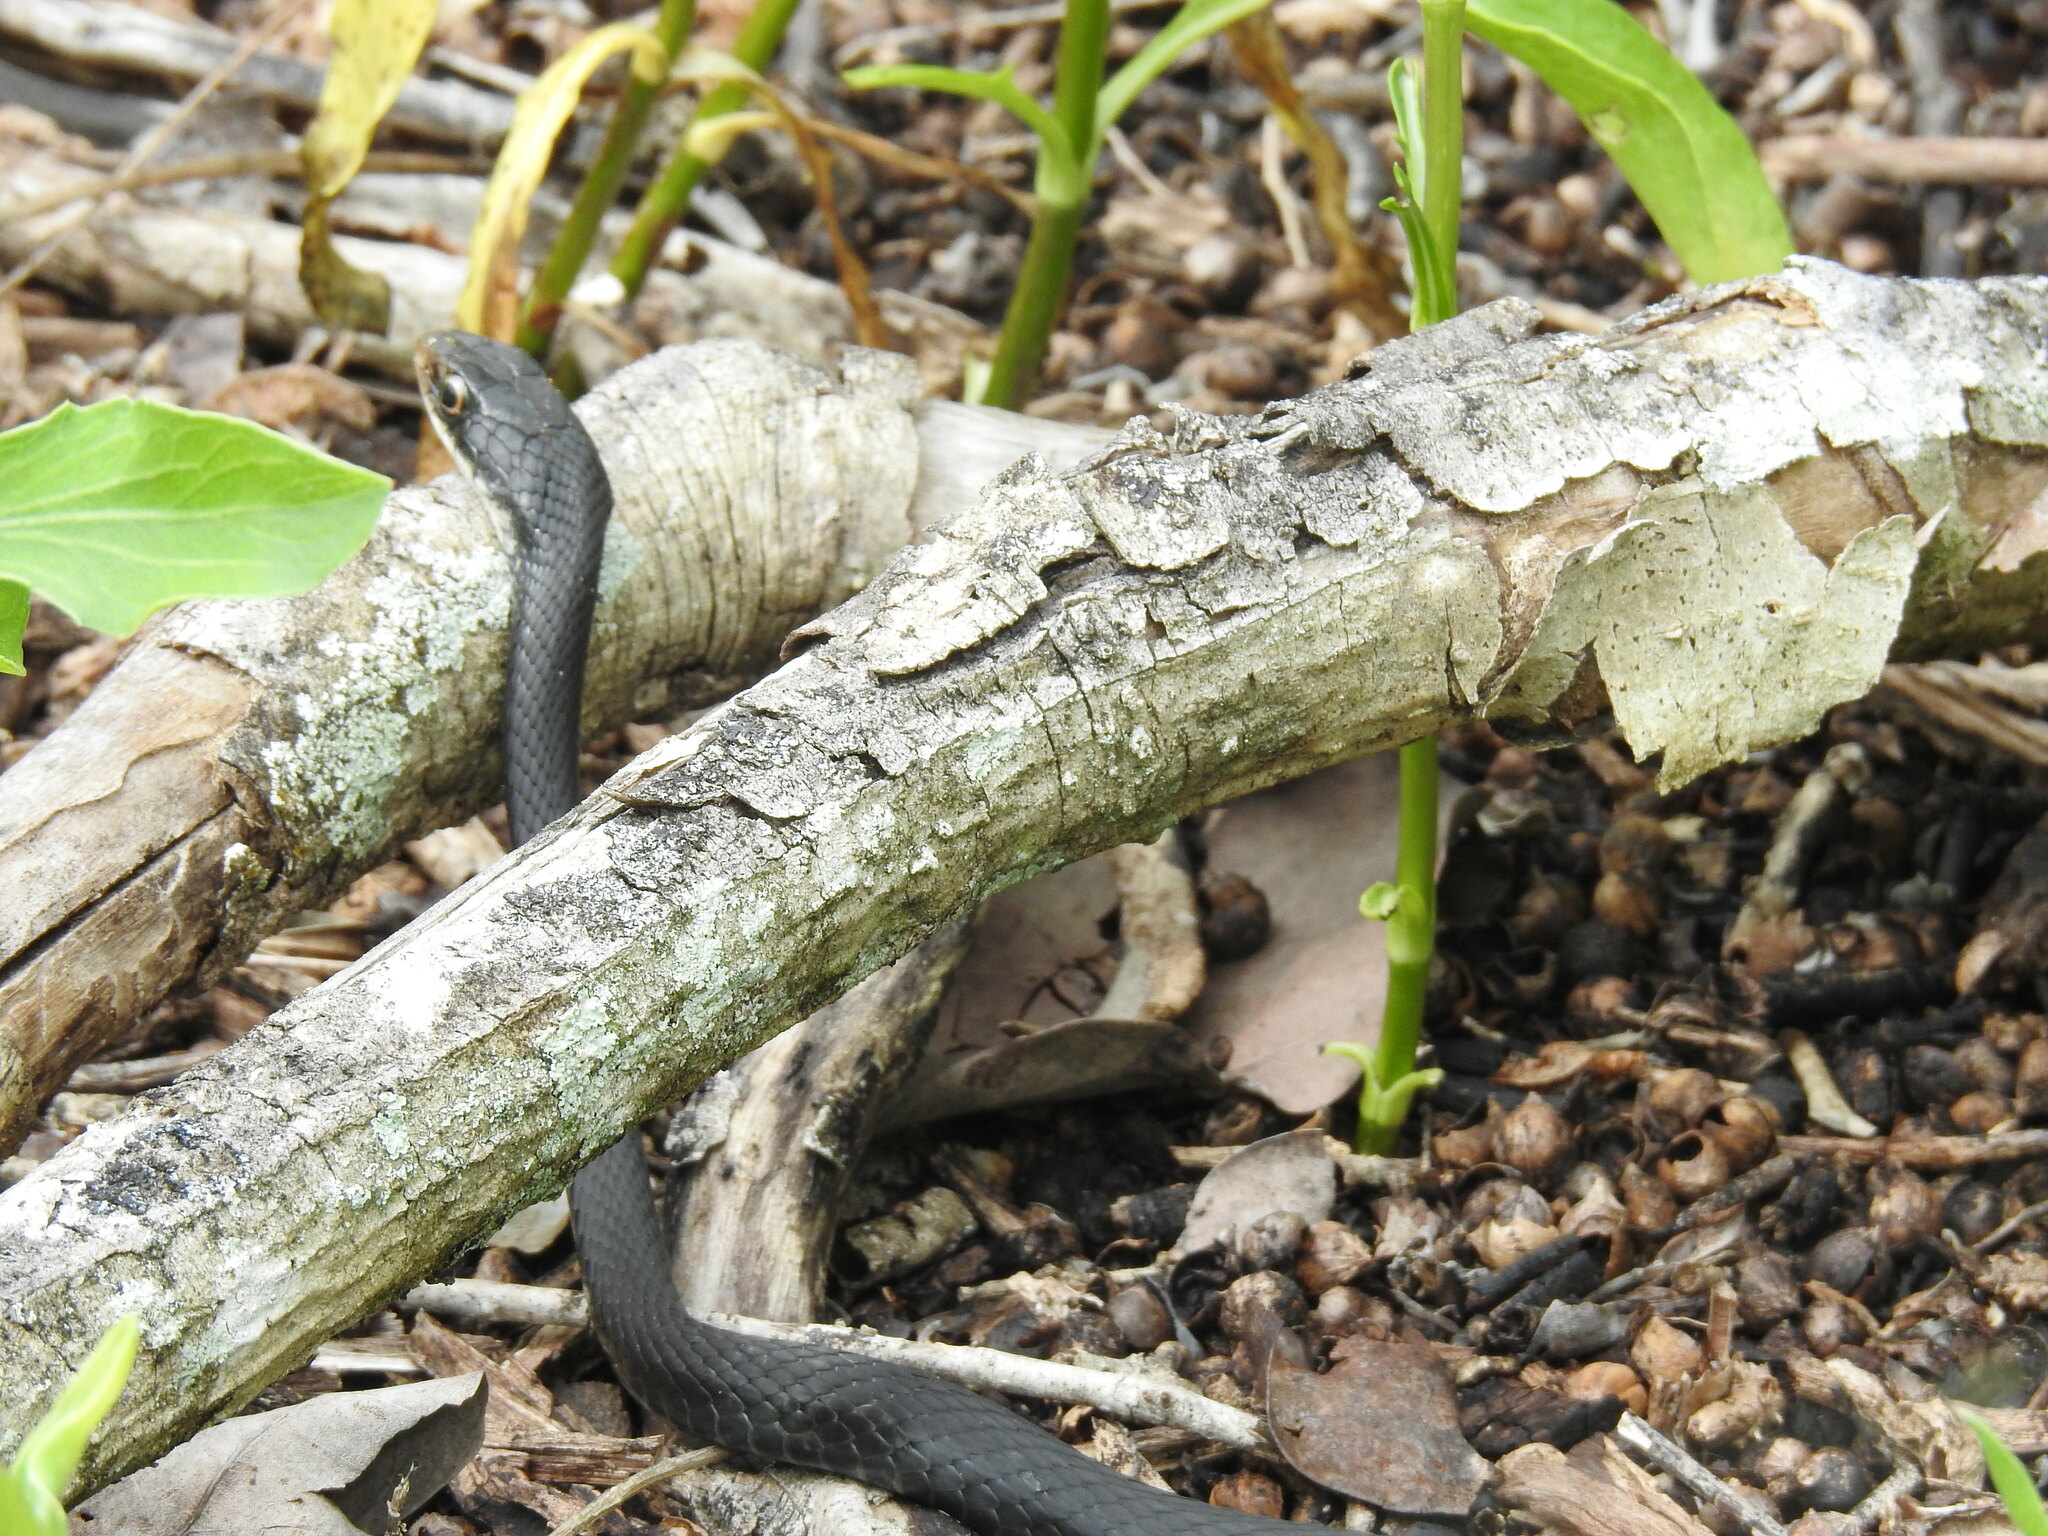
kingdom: Animalia
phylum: Chordata
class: Squamata
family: Colubridae
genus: Coluber
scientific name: Coluber constrictor
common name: Eastern racer
